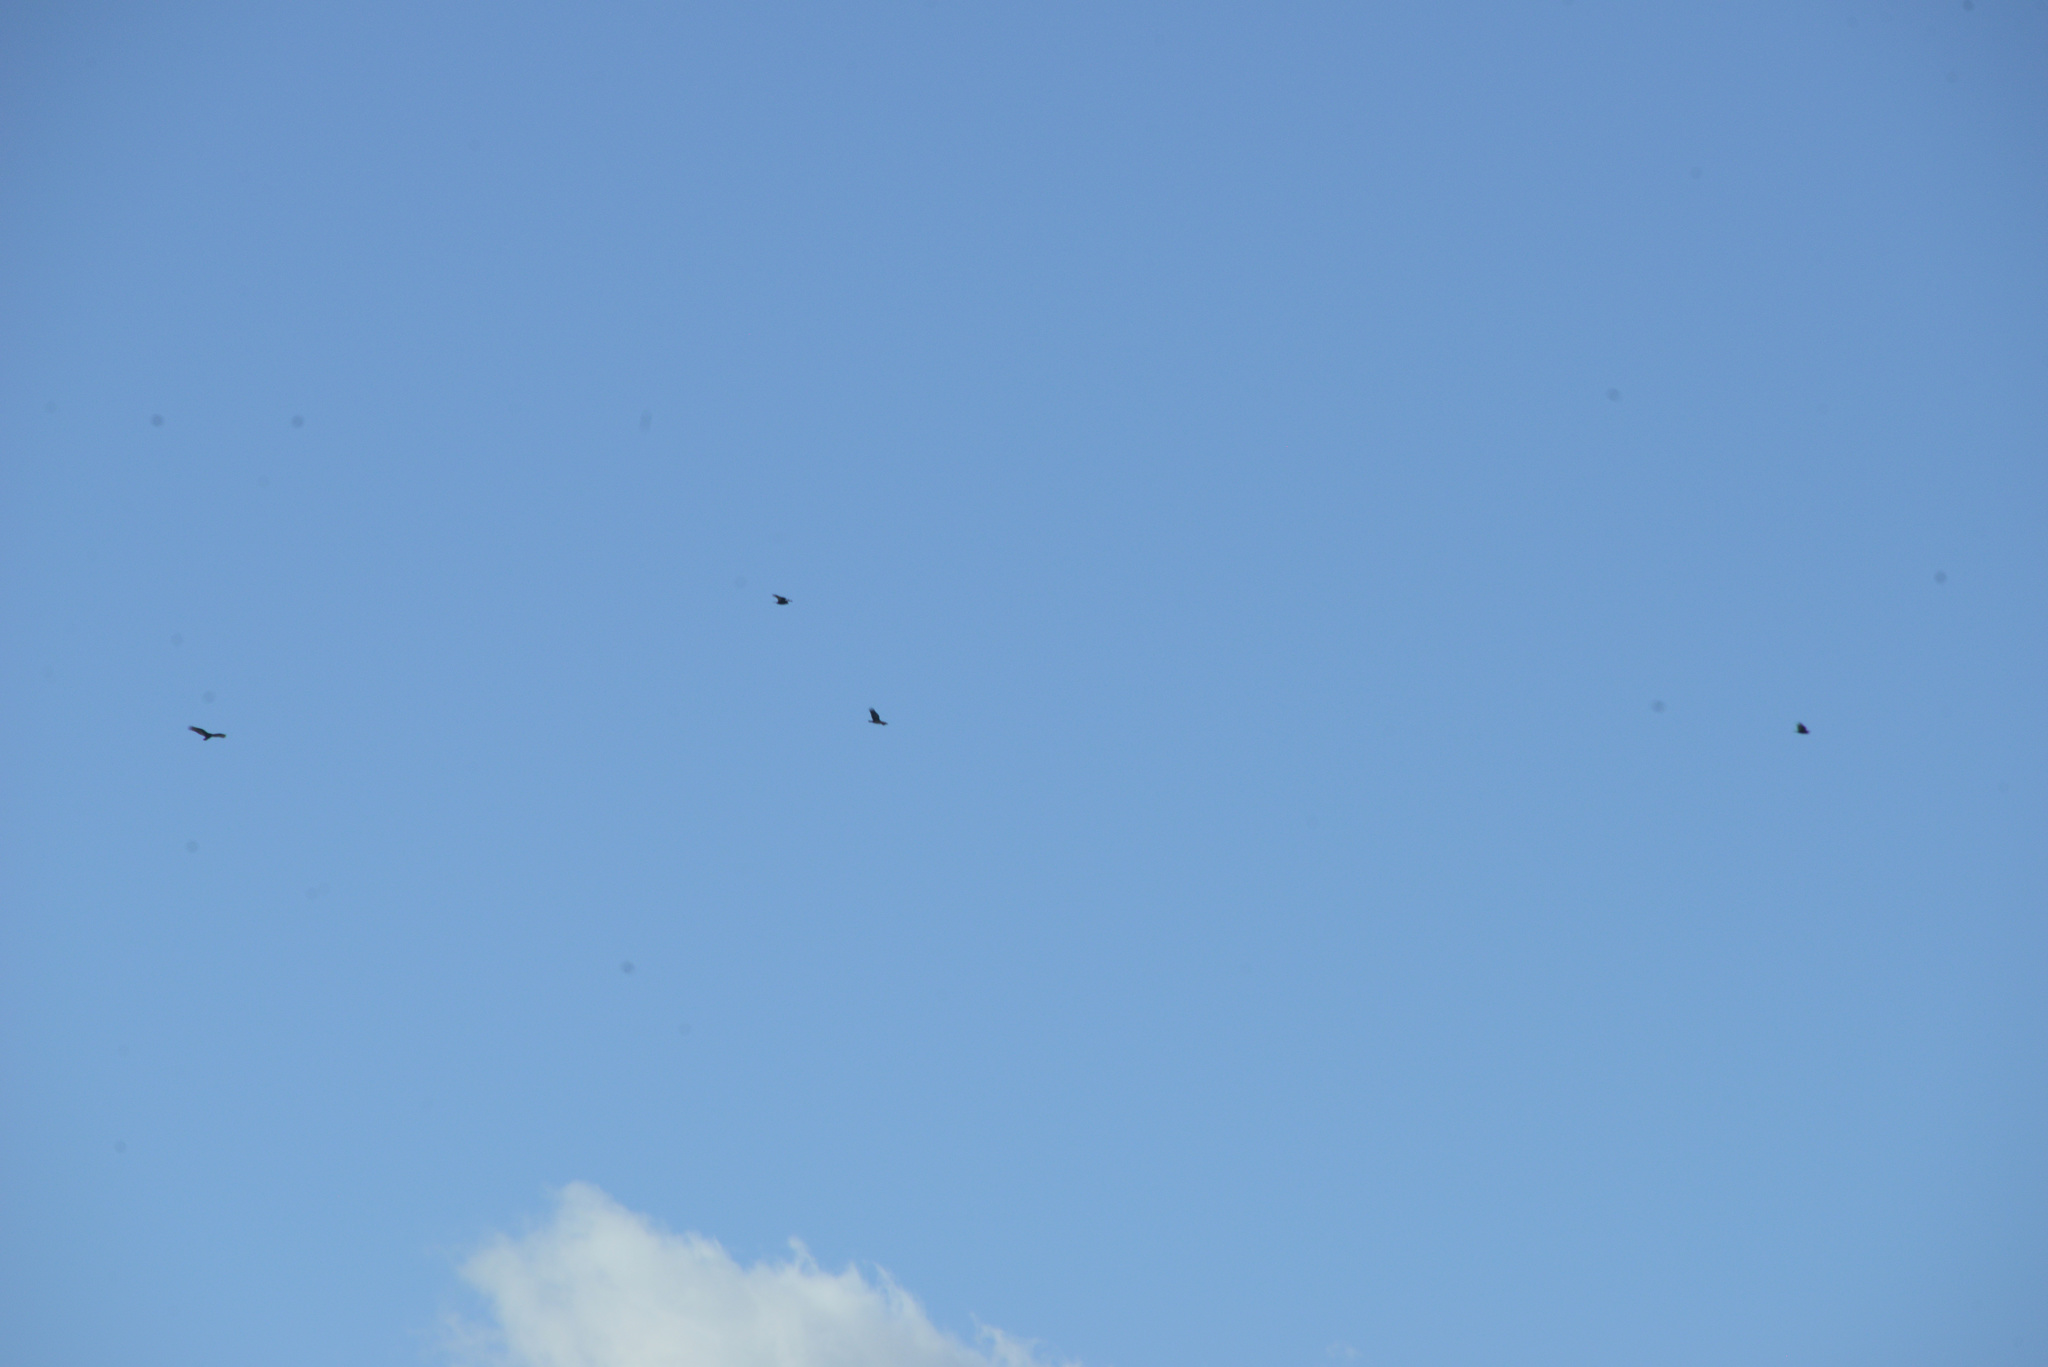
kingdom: Animalia
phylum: Chordata
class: Aves
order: Accipitriformes
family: Cathartidae
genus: Cathartes
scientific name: Cathartes aura
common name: Turkey vulture
